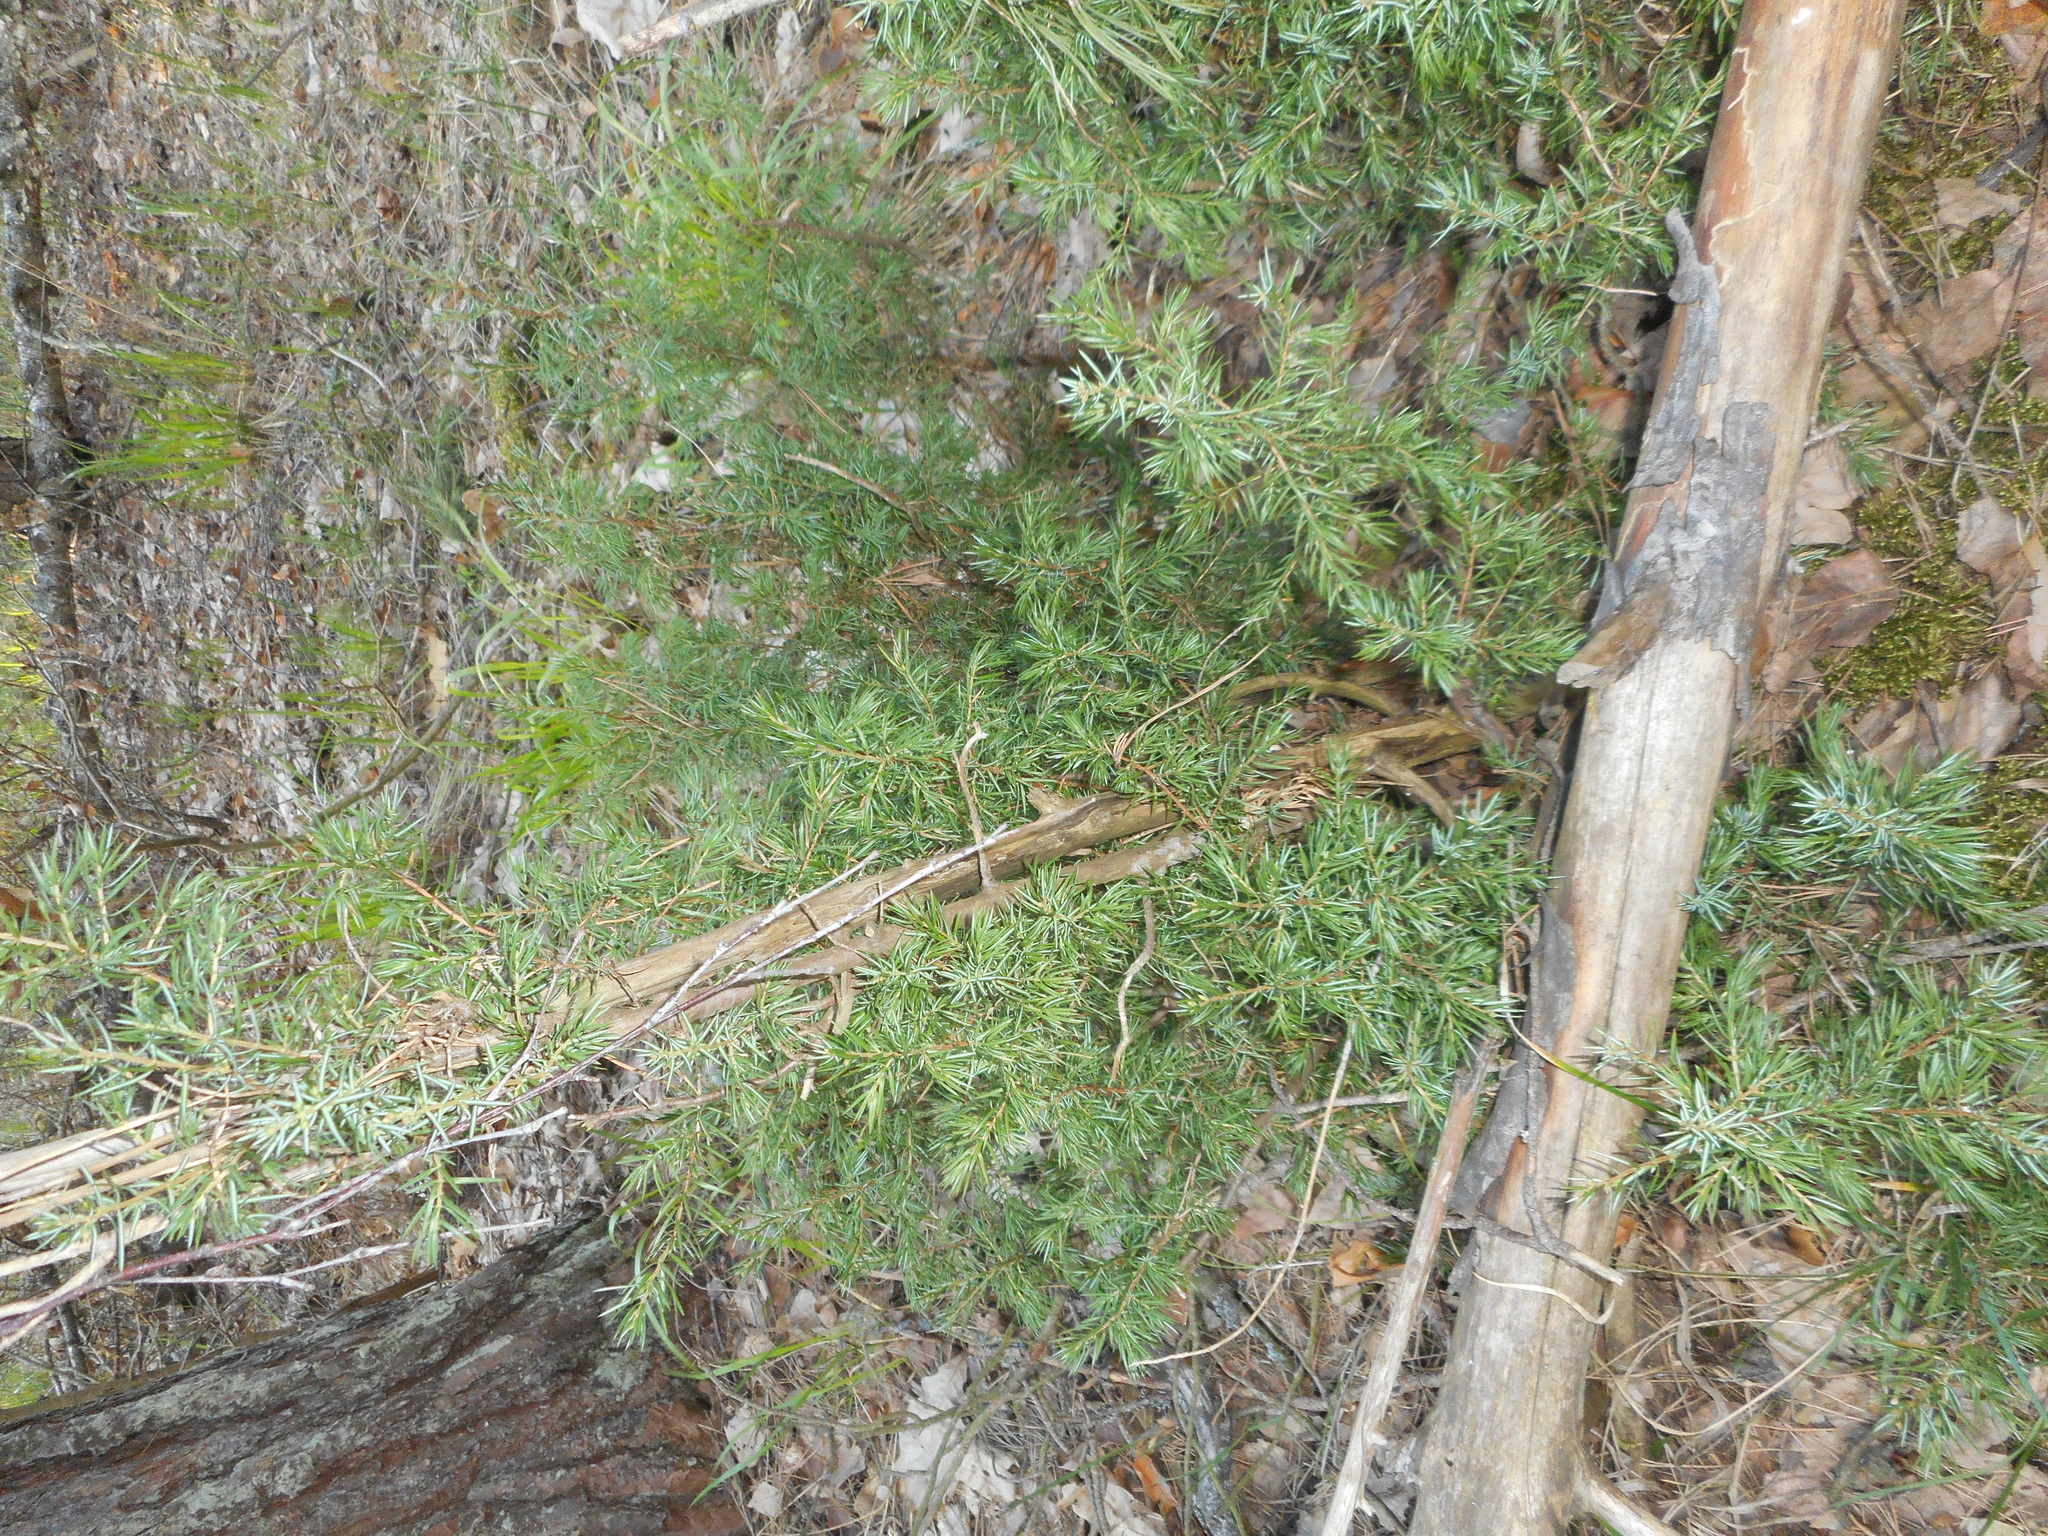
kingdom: Plantae
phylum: Tracheophyta
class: Pinopsida
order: Pinales
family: Cupressaceae
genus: Juniperus
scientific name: Juniperus communis
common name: Common juniper
